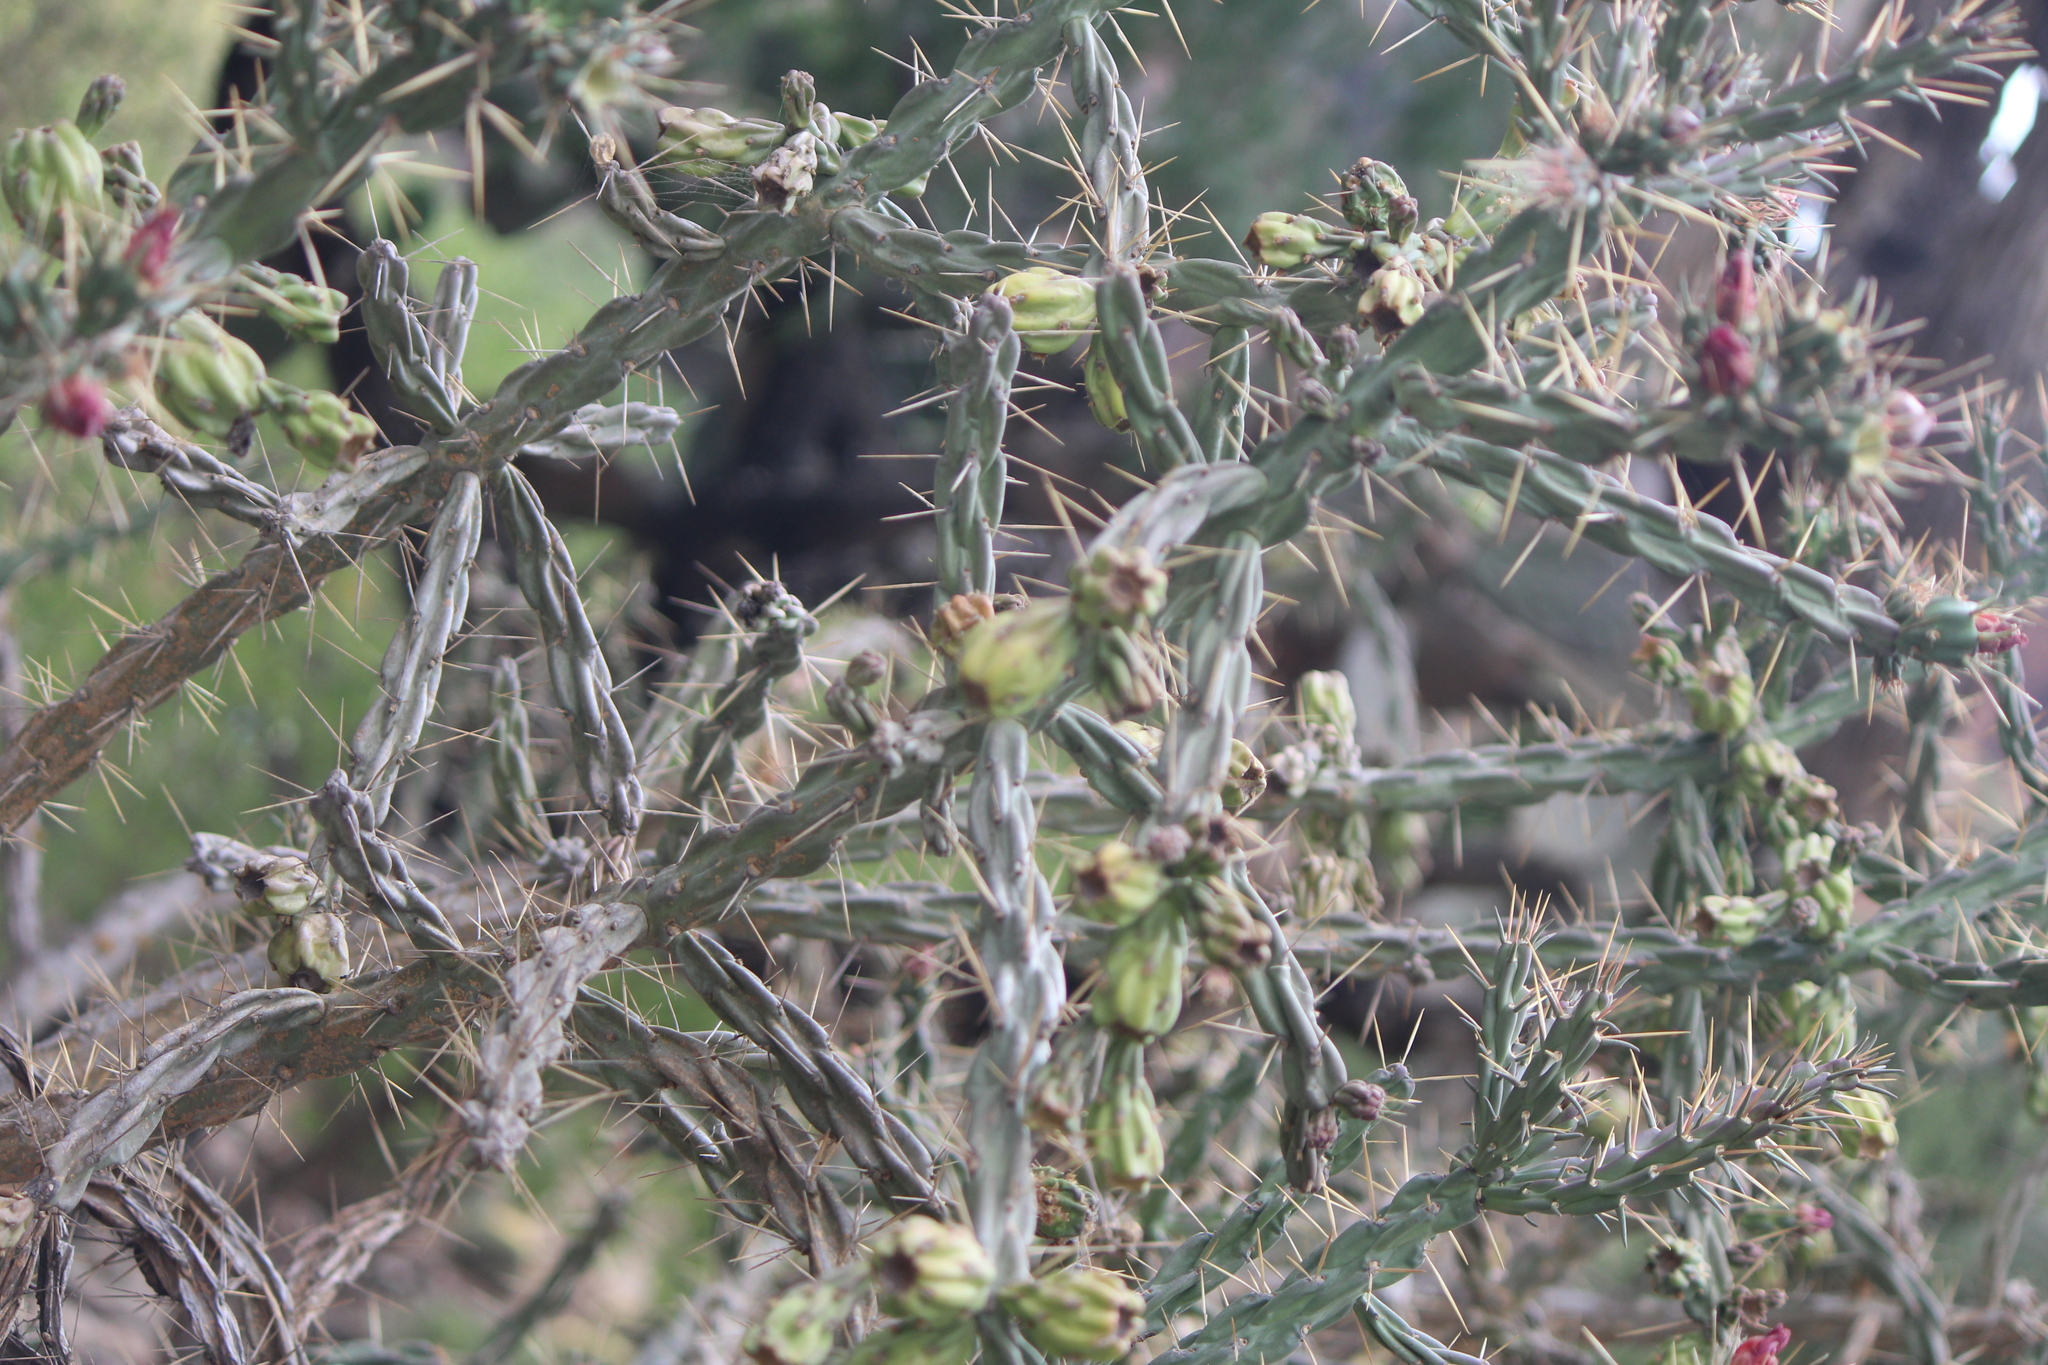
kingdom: Plantae
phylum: Tracheophyta
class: Magnoliopsida
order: Caryophyllales
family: Cactaceae
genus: Cylindropuntia
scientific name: Cylindropuntia kleiniae
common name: Klein's cholla
